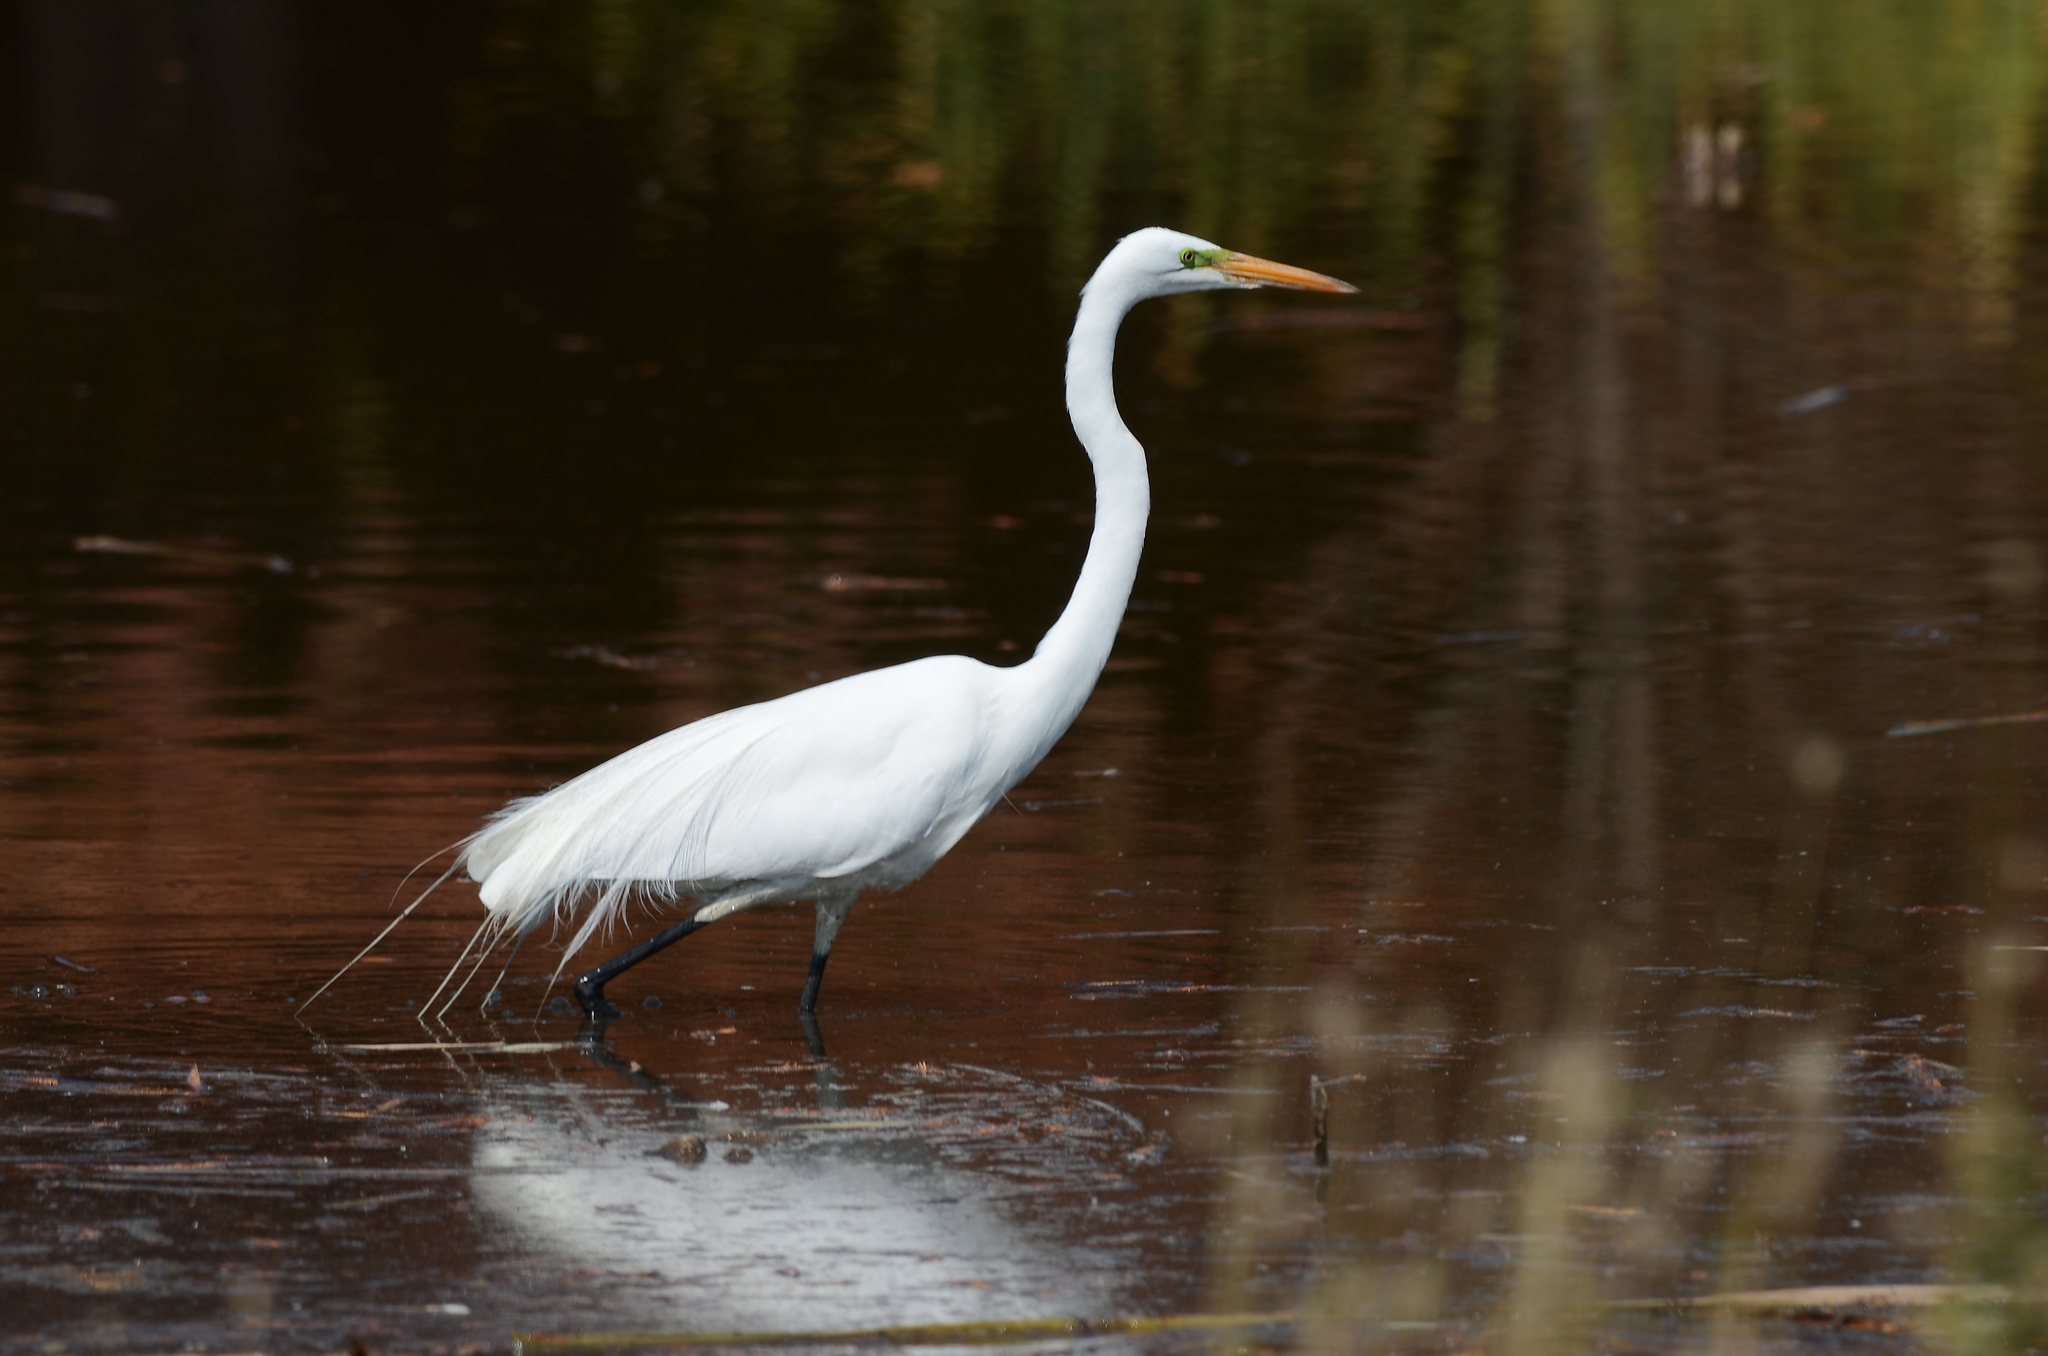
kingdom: Animalia
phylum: Chordata
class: Aves
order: Pelecaniformes
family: Ardeidae
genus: Ardea
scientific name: Ardea alba
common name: Great egret
